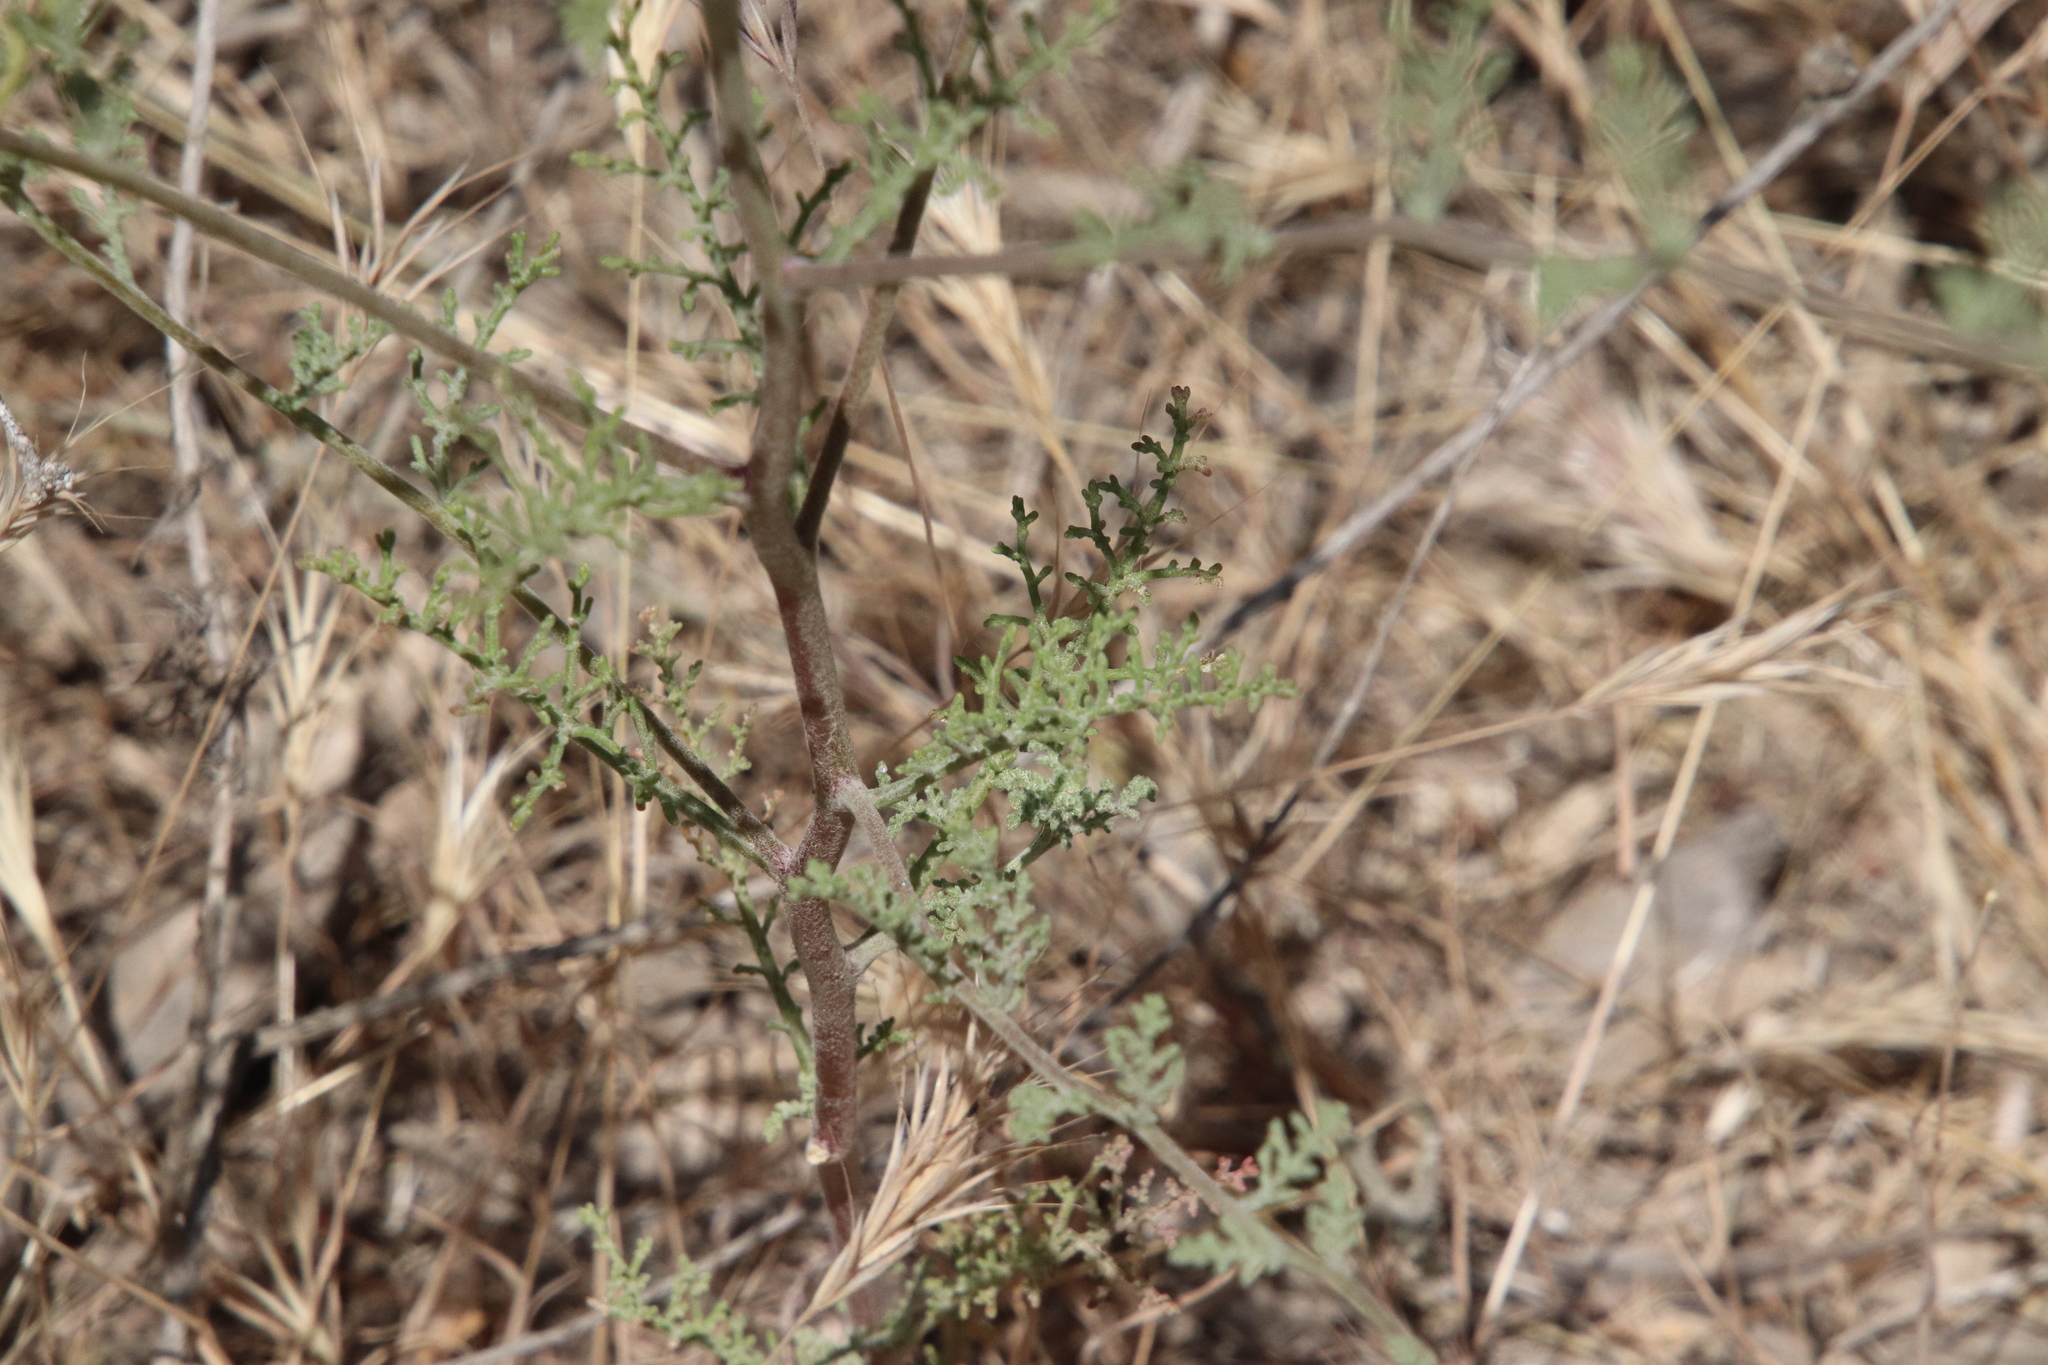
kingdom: Plantae
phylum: Tracheophyta
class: Magnoliopsida
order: Asterales
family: Asteraceae
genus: Chaenactis
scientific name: Chaenactis glabriuscula
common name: Yellow pincushion
